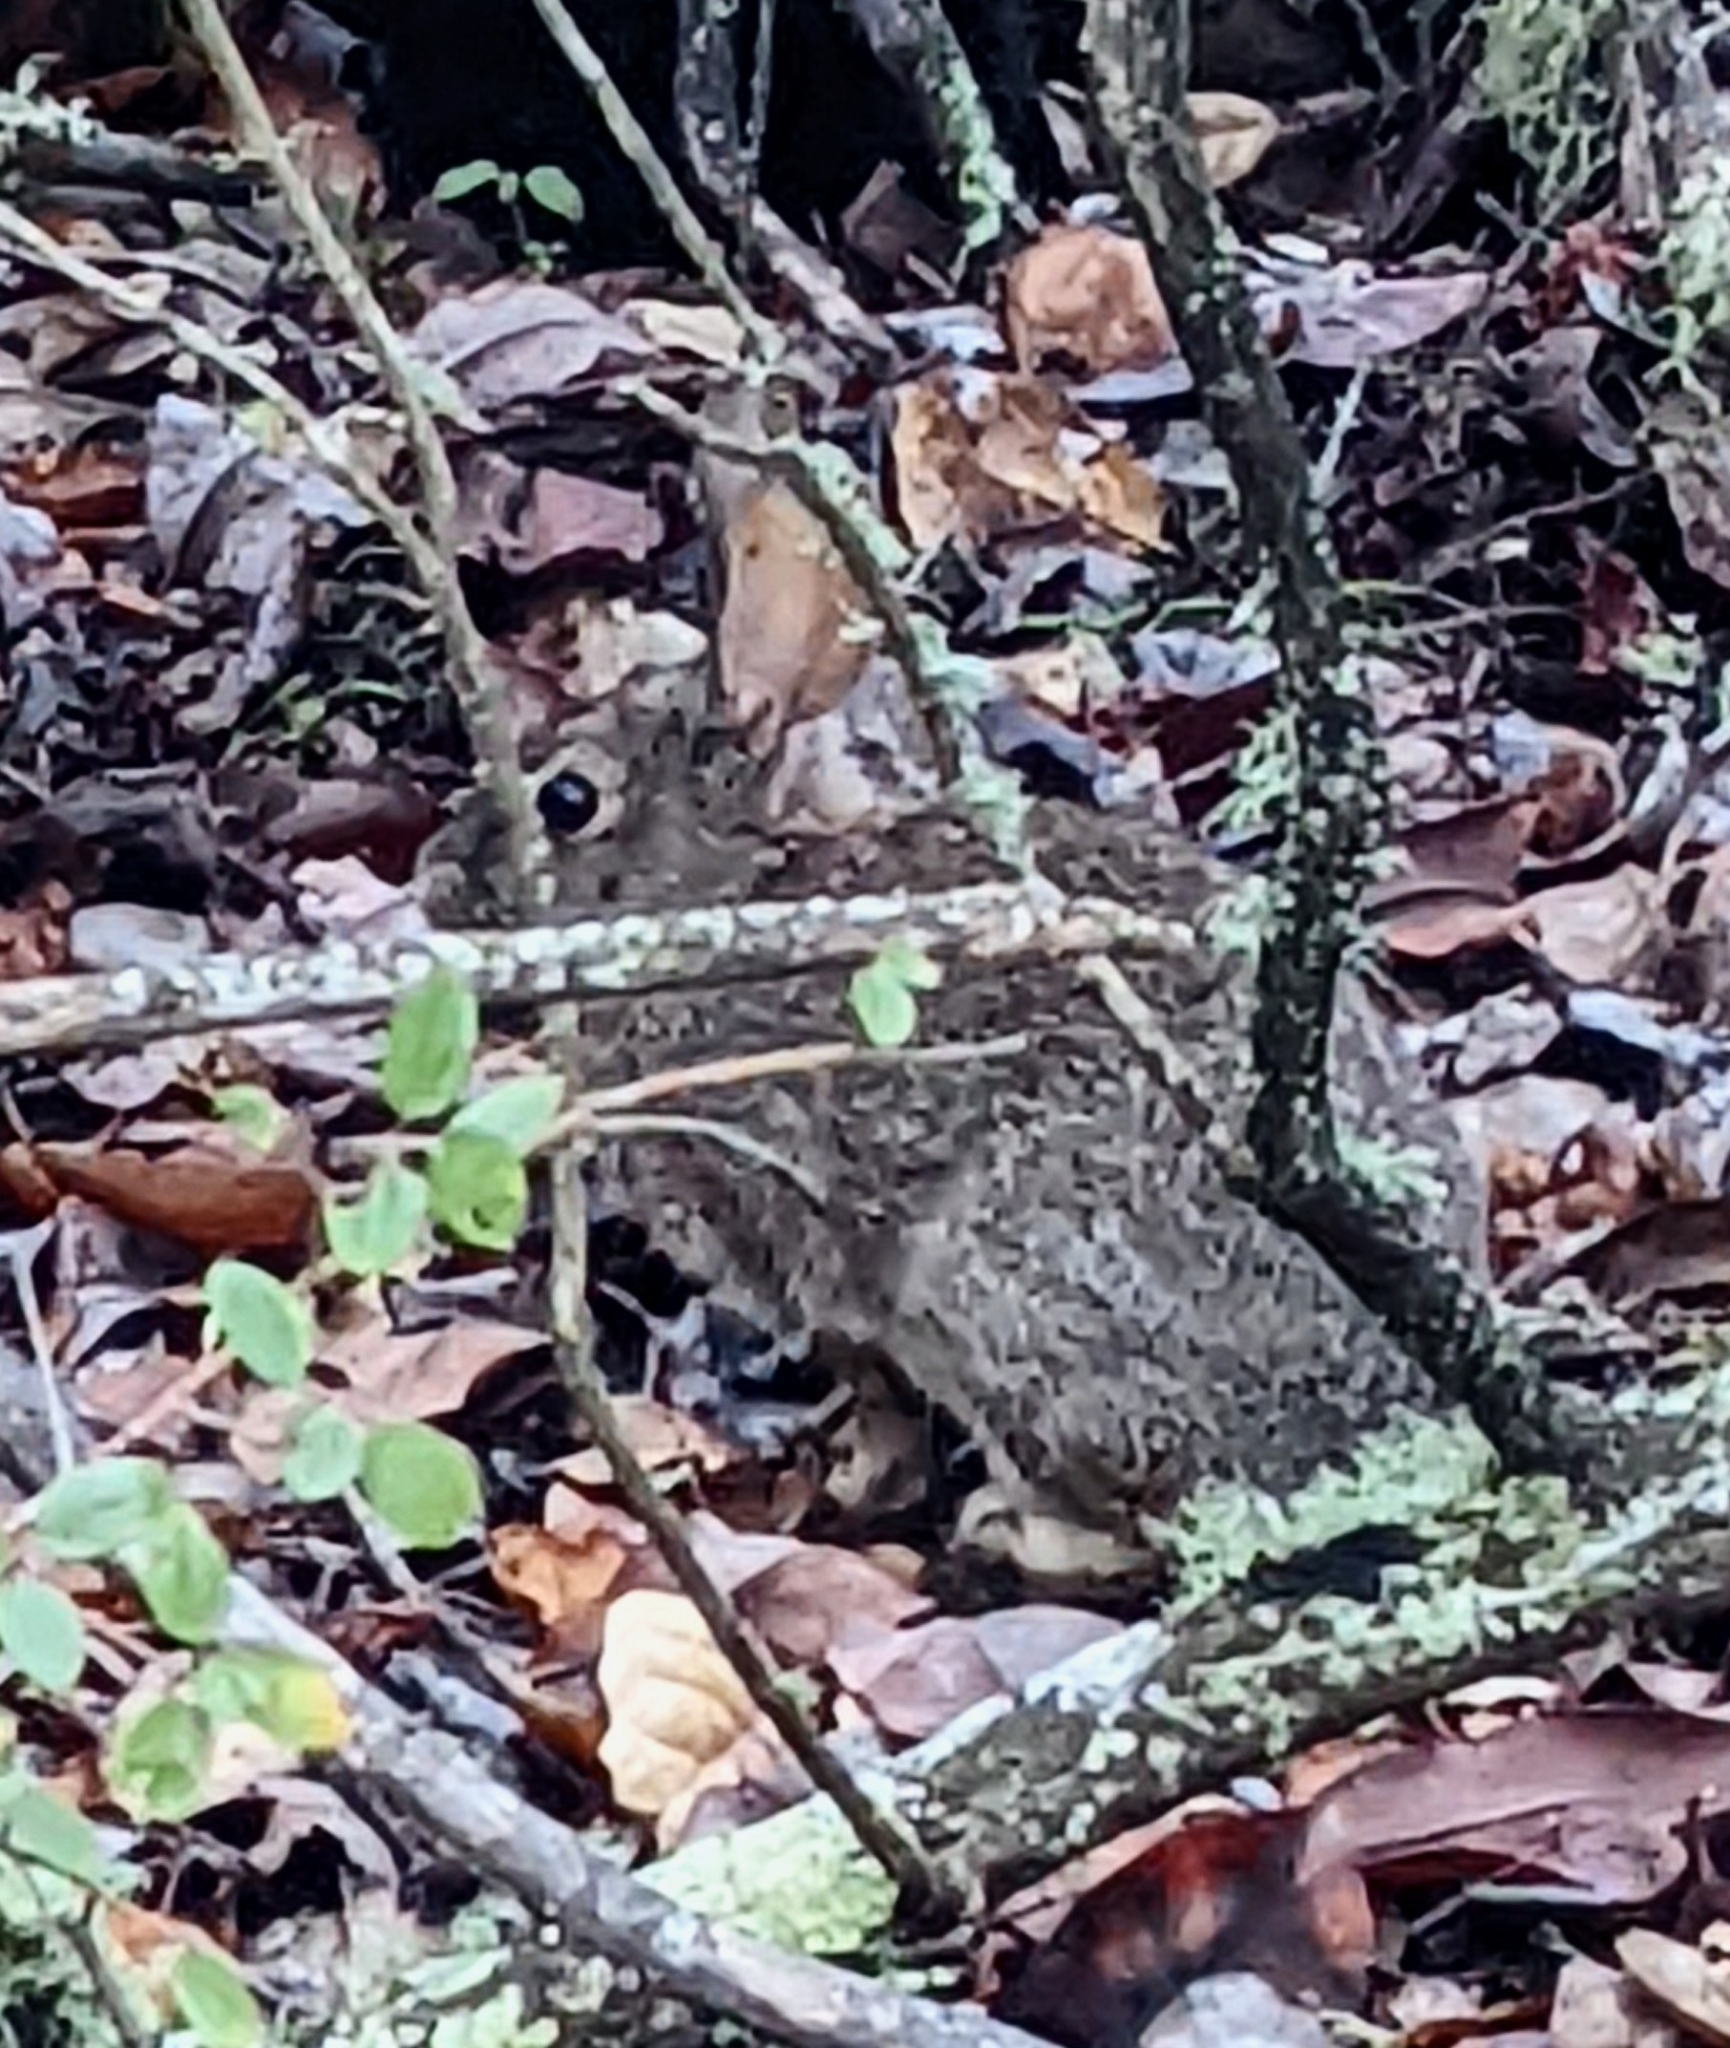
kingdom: Animalia
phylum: Chordata
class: Mammalia
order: Lagomorpha
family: Leporidae
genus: Sylvilagus
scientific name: Sylvilagus bachmani
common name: Brush rabbit
